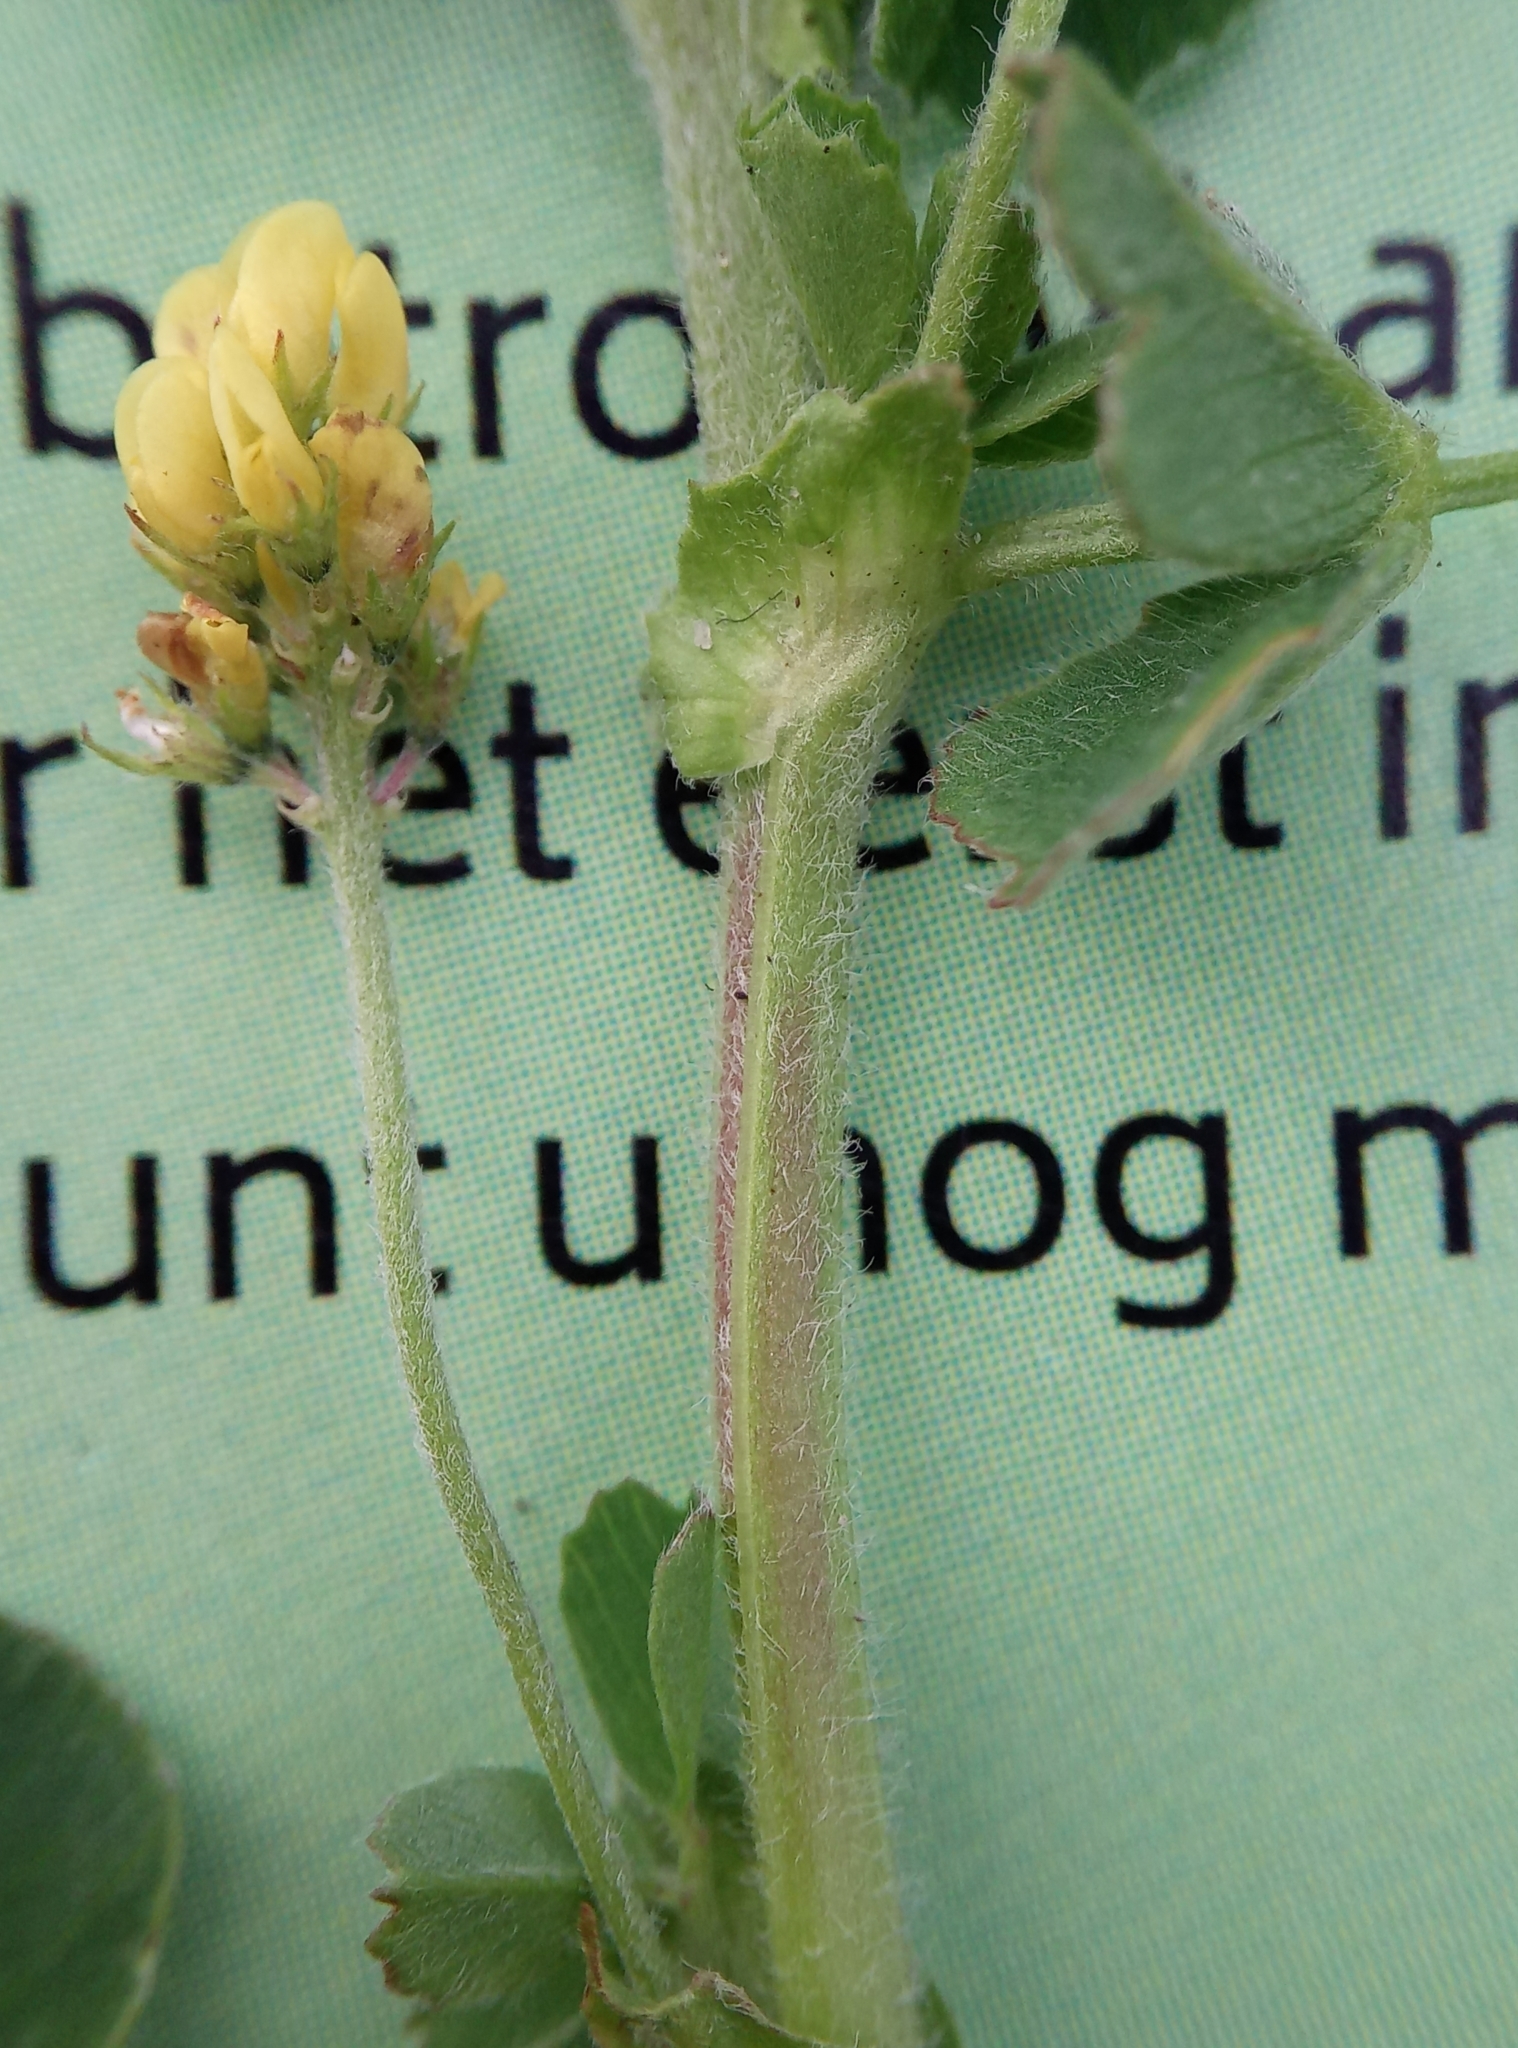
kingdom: Plantae
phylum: Tracheophyta
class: Magnoliopsida
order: Fabales
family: Fabaceae
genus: Medicago
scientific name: Medicago lupulina
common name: Black medick
